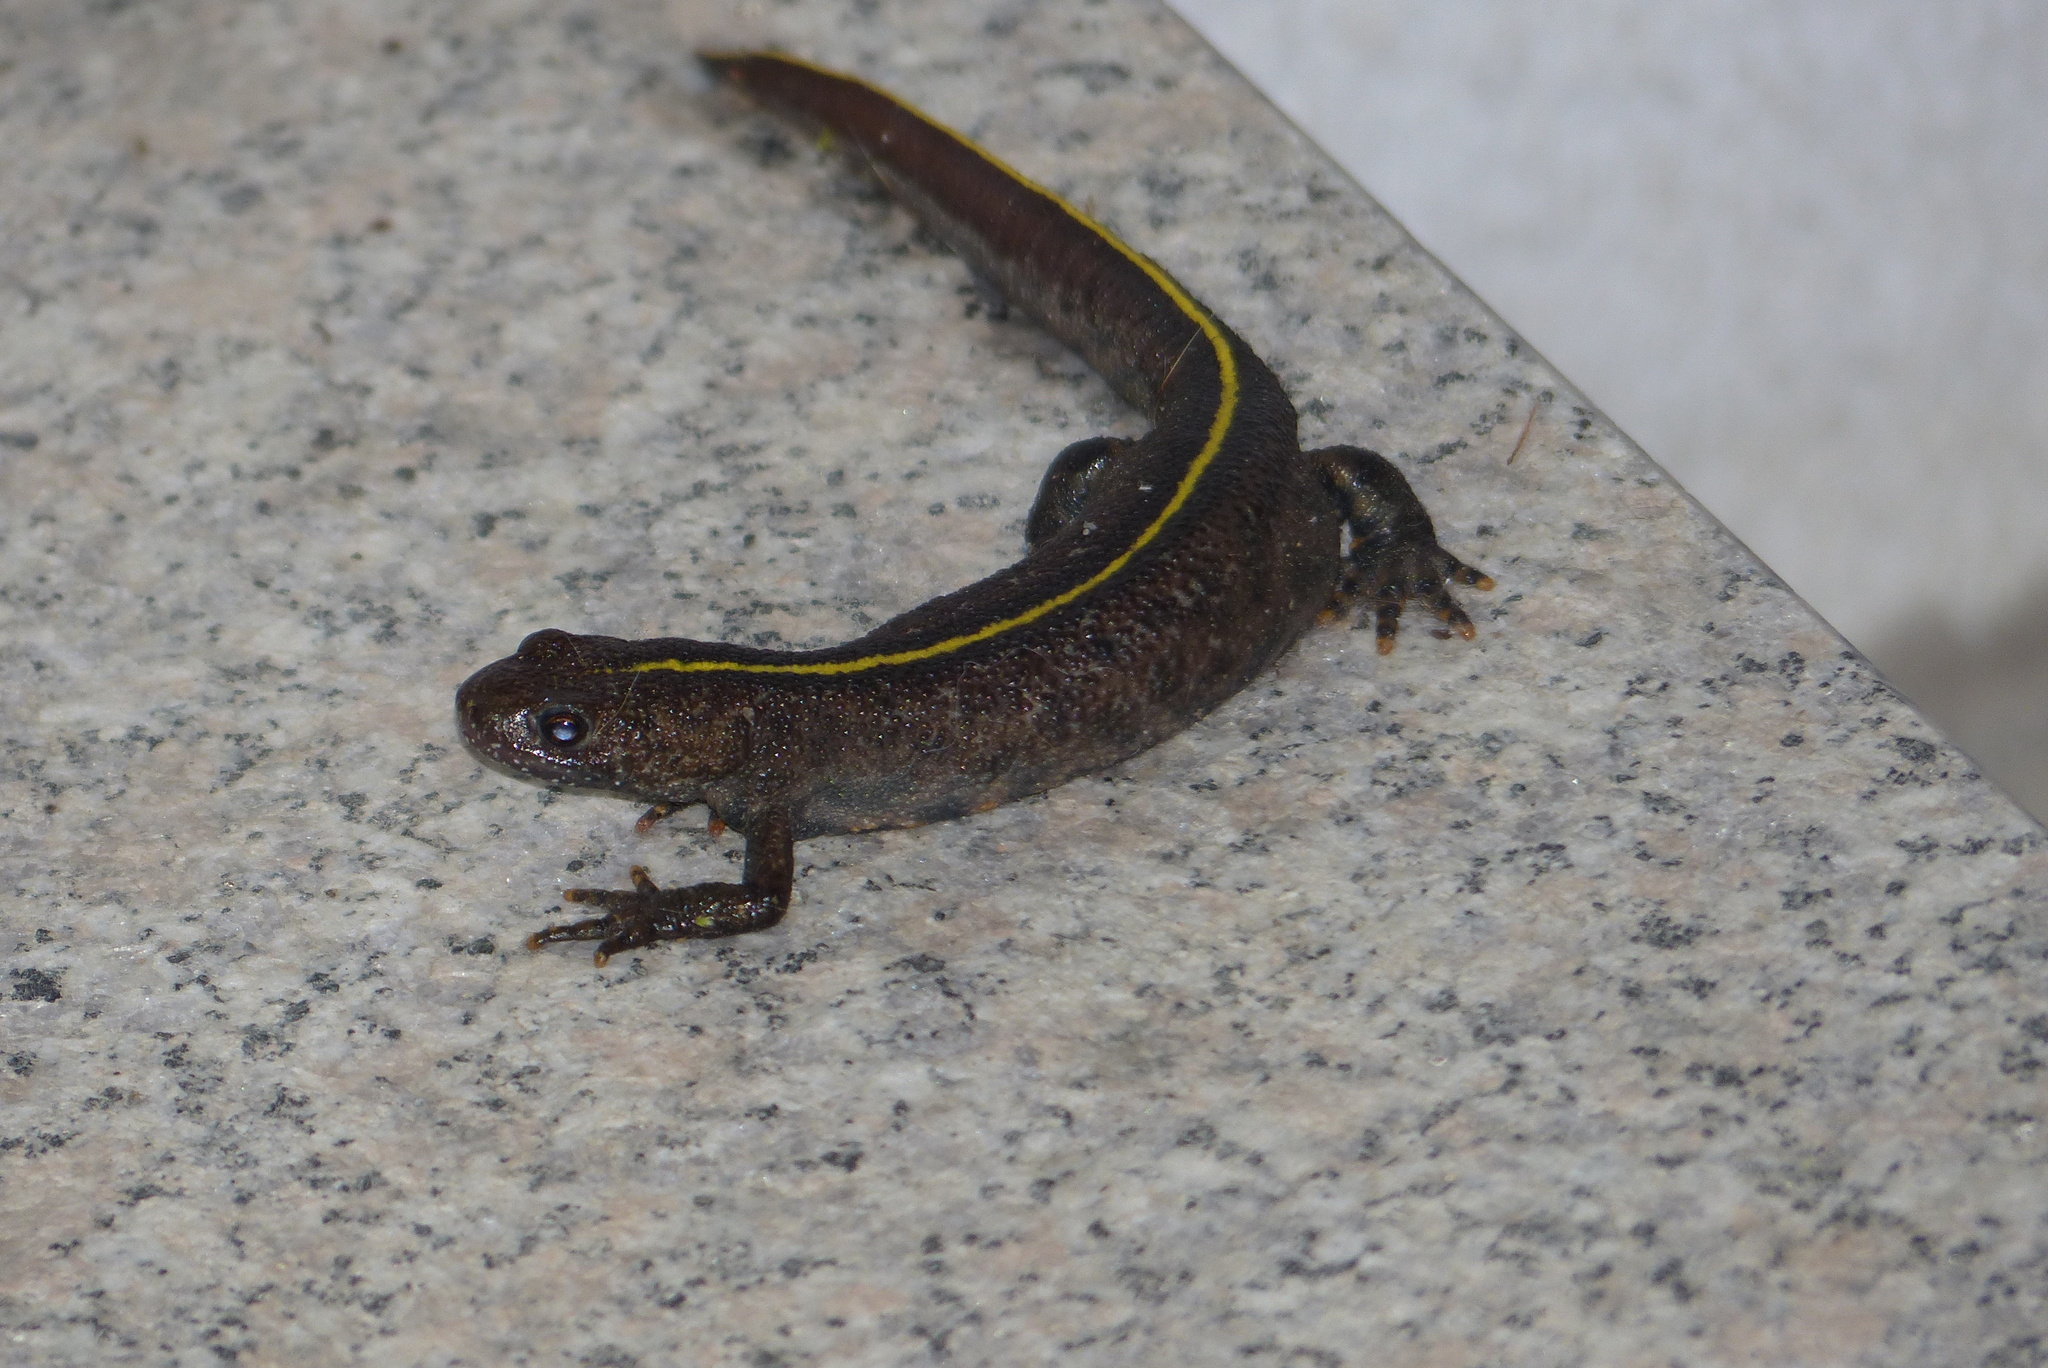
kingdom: Animalia
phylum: Chordata
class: Amphibia
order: Caudata
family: Salamandridae
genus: Triturus
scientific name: Triturus carnifex
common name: Italian crested newt
